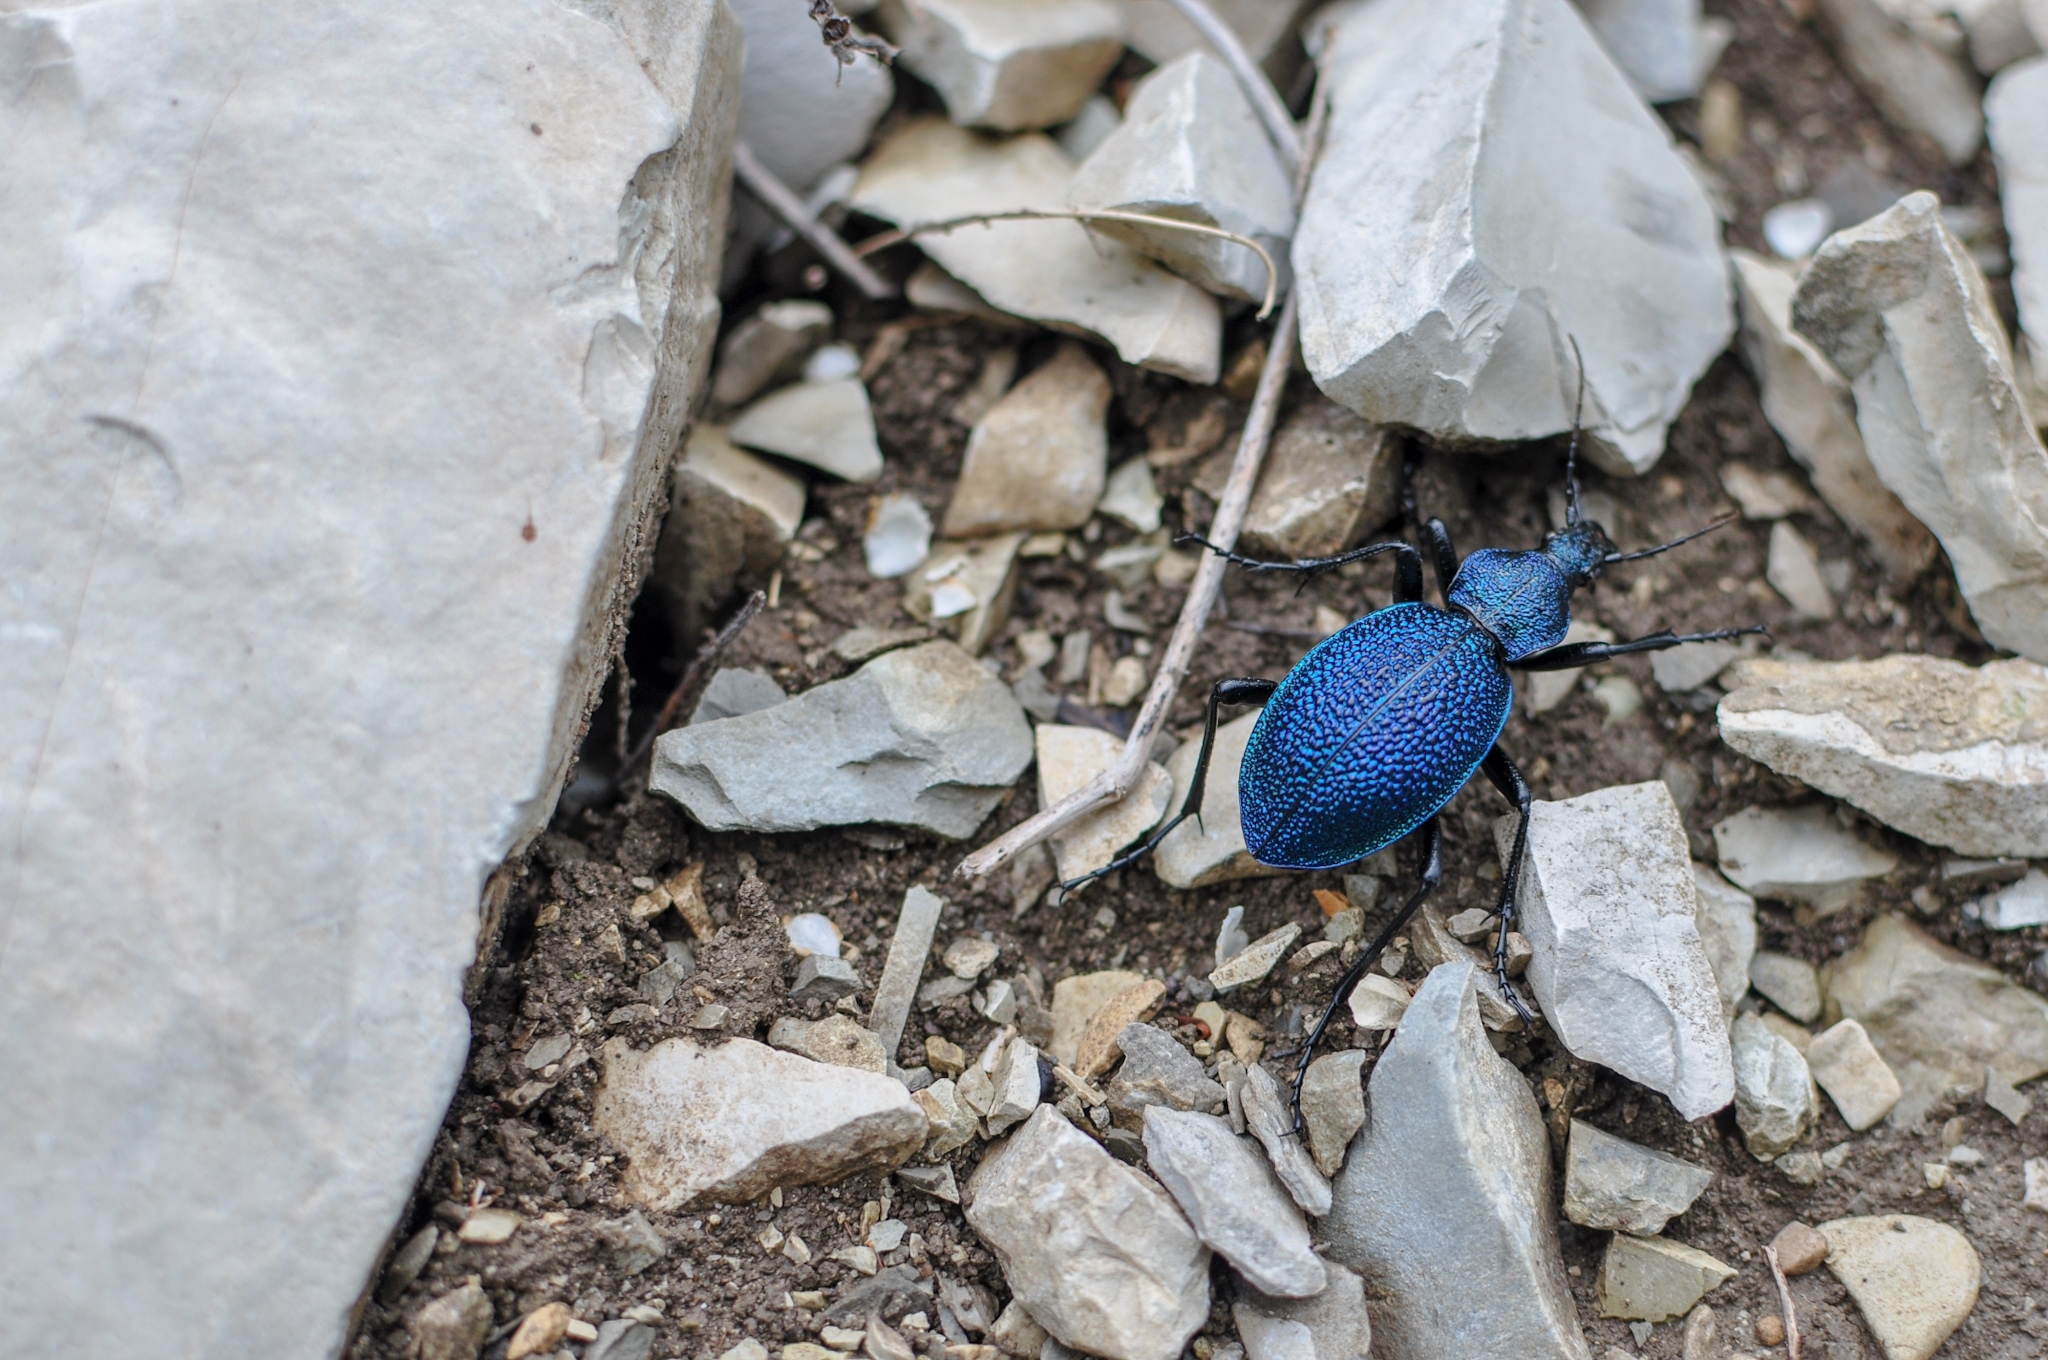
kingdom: Animalia
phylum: Arthropoda
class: Insecta
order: Coleoptera
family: Carabidae
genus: Carabus
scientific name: Carabus scabrosus
